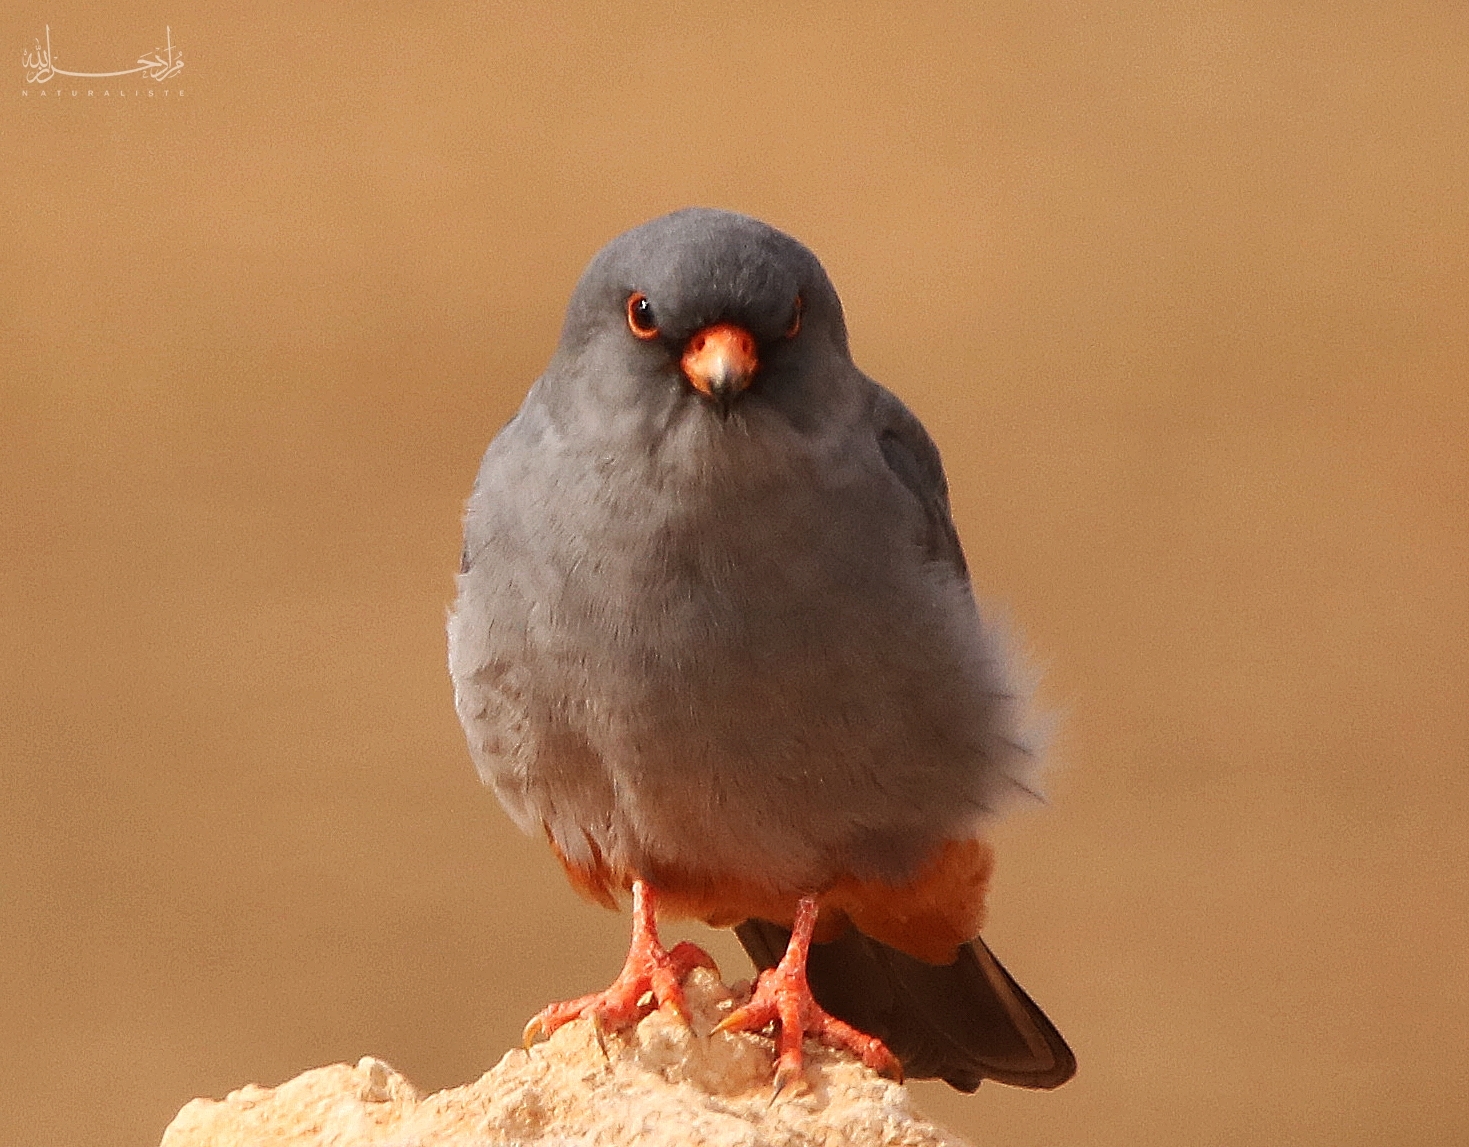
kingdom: Animalia
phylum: Chordata
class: Aves
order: Falconiformes
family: Falconidae
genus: Falco
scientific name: Falco vespertinus
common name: Red-footed falcon
